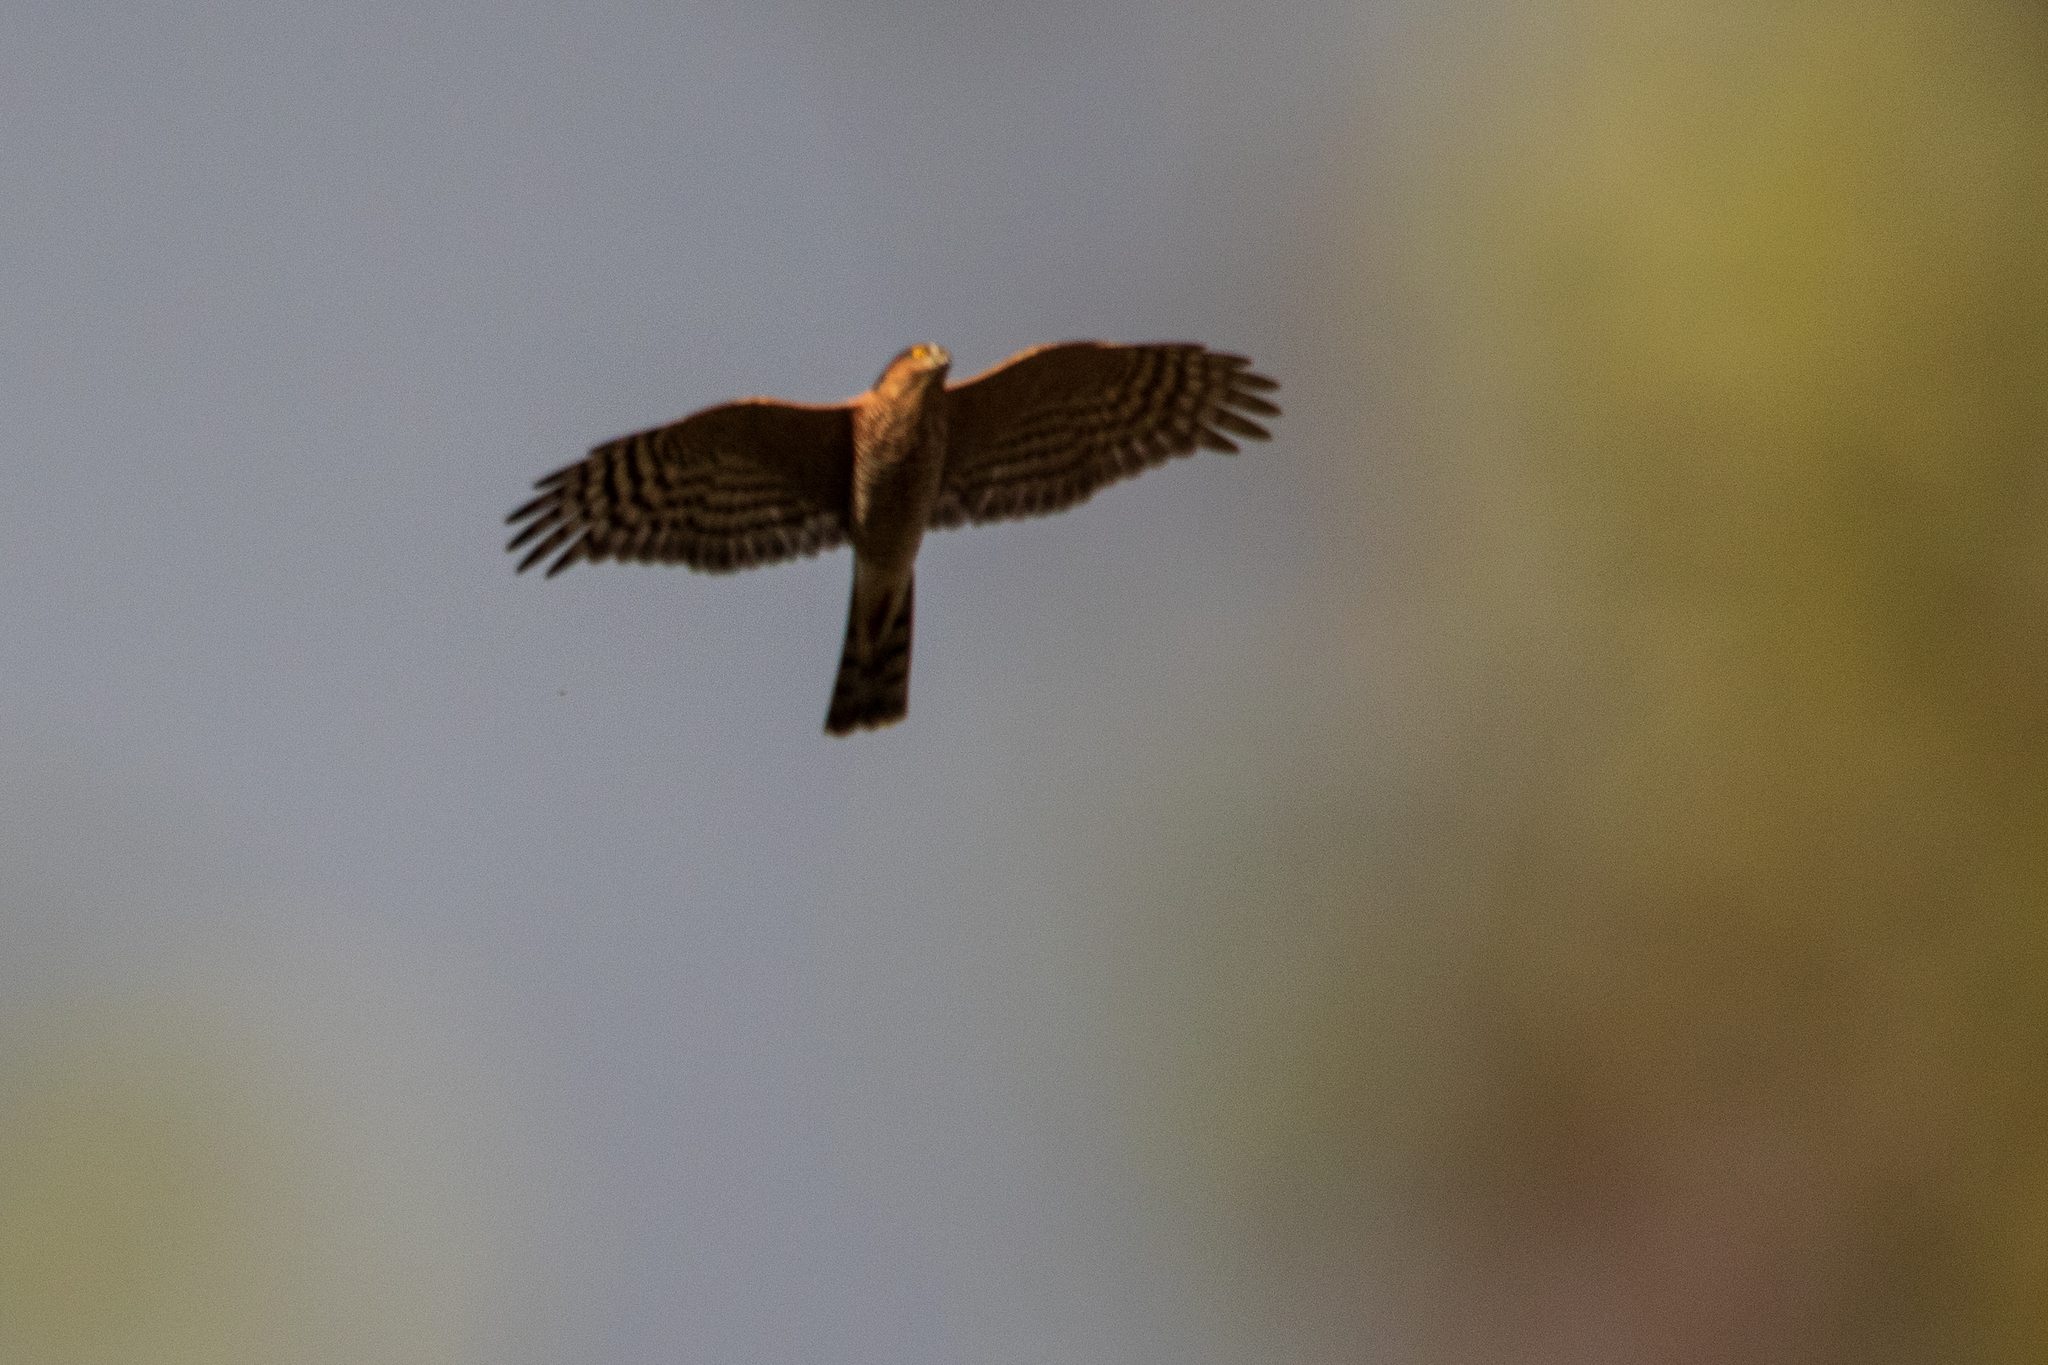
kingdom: Animalia
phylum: Chordata
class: Aves
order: Accipitriformes
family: Accipitridae
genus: Accipiter
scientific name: Accipiter nisus
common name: Eurasian sparrowhawk
